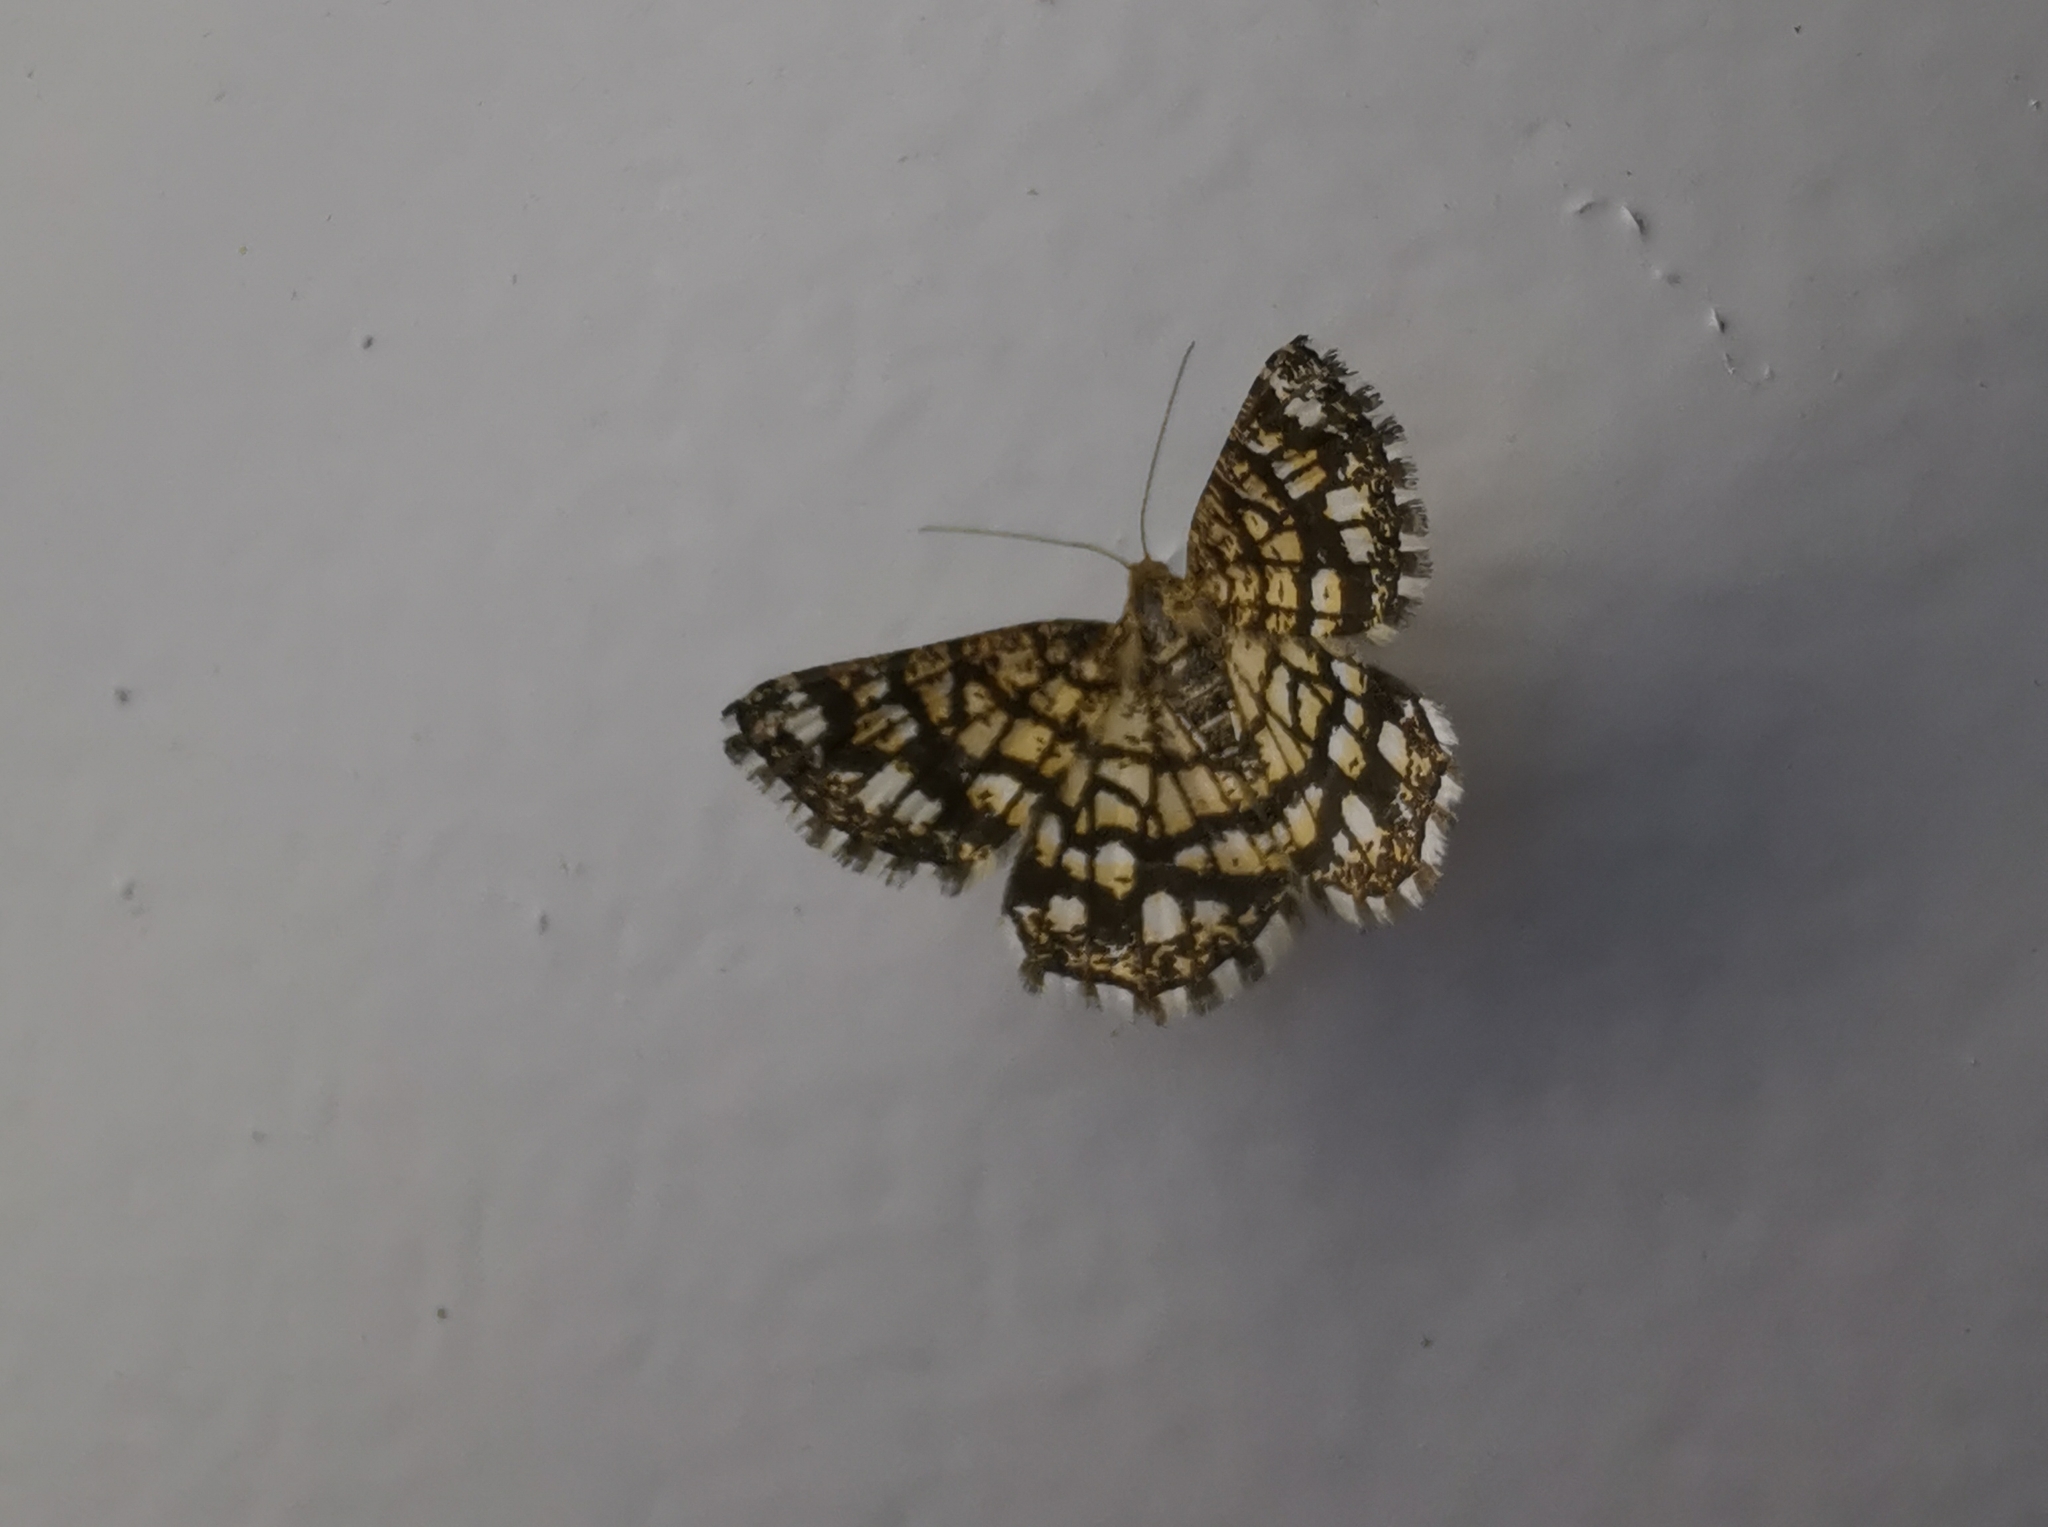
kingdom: Animalia
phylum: Arthropoda
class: Insecta
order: Lepidoptera
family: Geometridae
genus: Chiasmia
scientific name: Chiasmia clathrata
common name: Latticed heath
